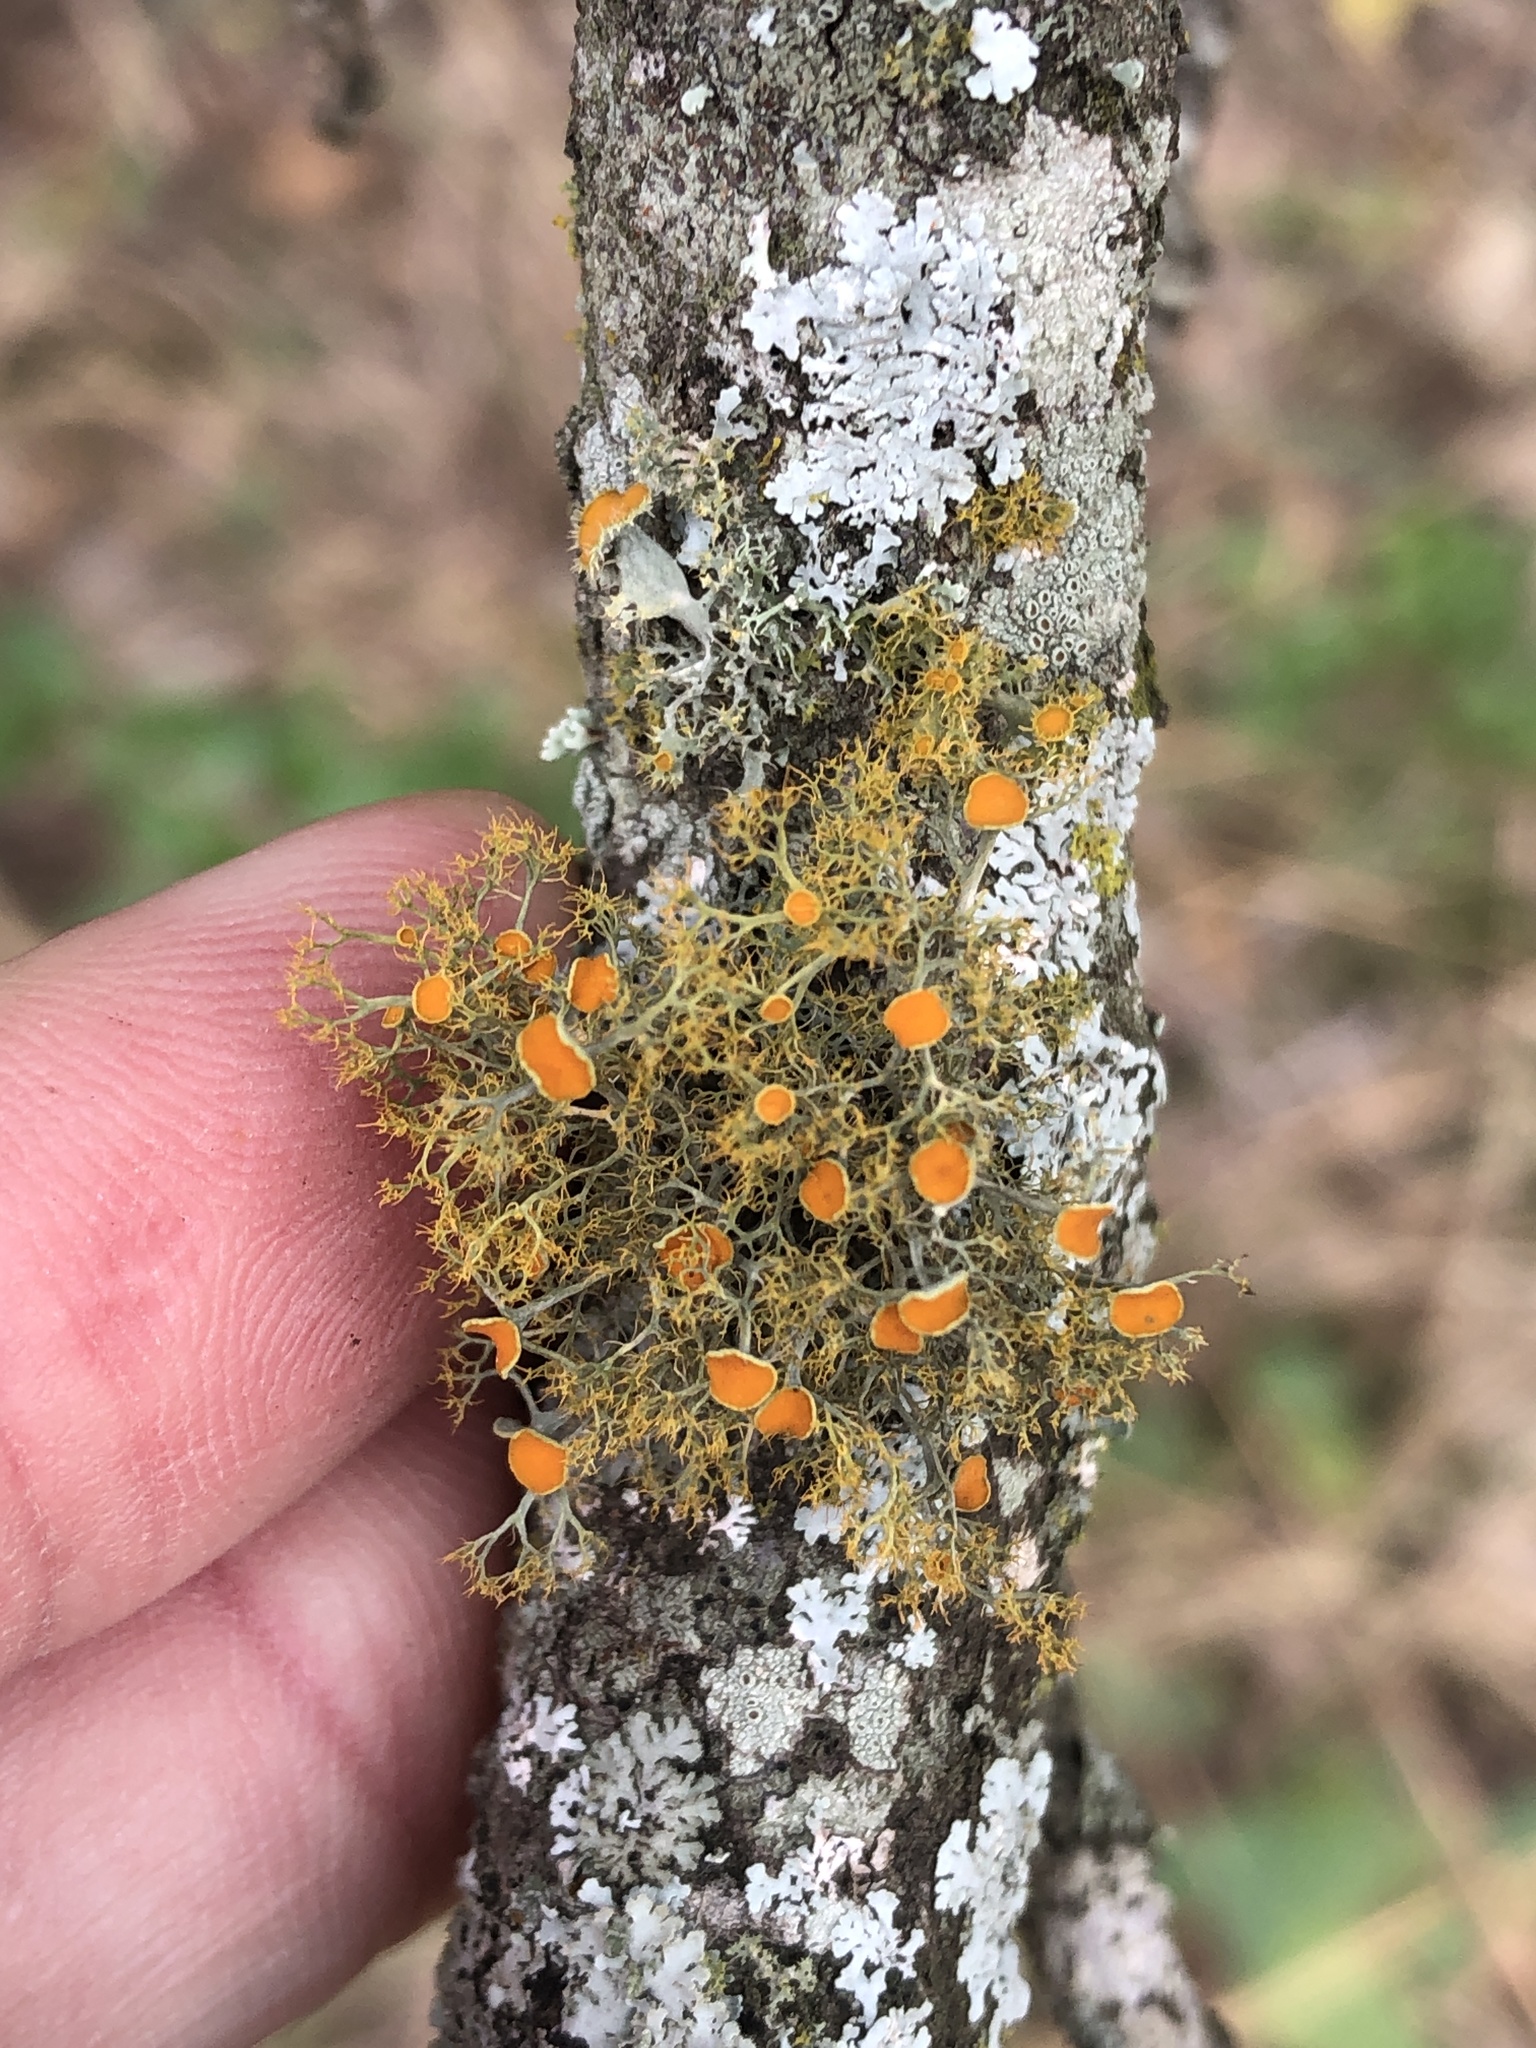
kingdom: Fungi
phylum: Ascomycota
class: Lecanoromycetes
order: Teloschistales
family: Teloschistaceae
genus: Teloschistes
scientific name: Teloschistes exilis
